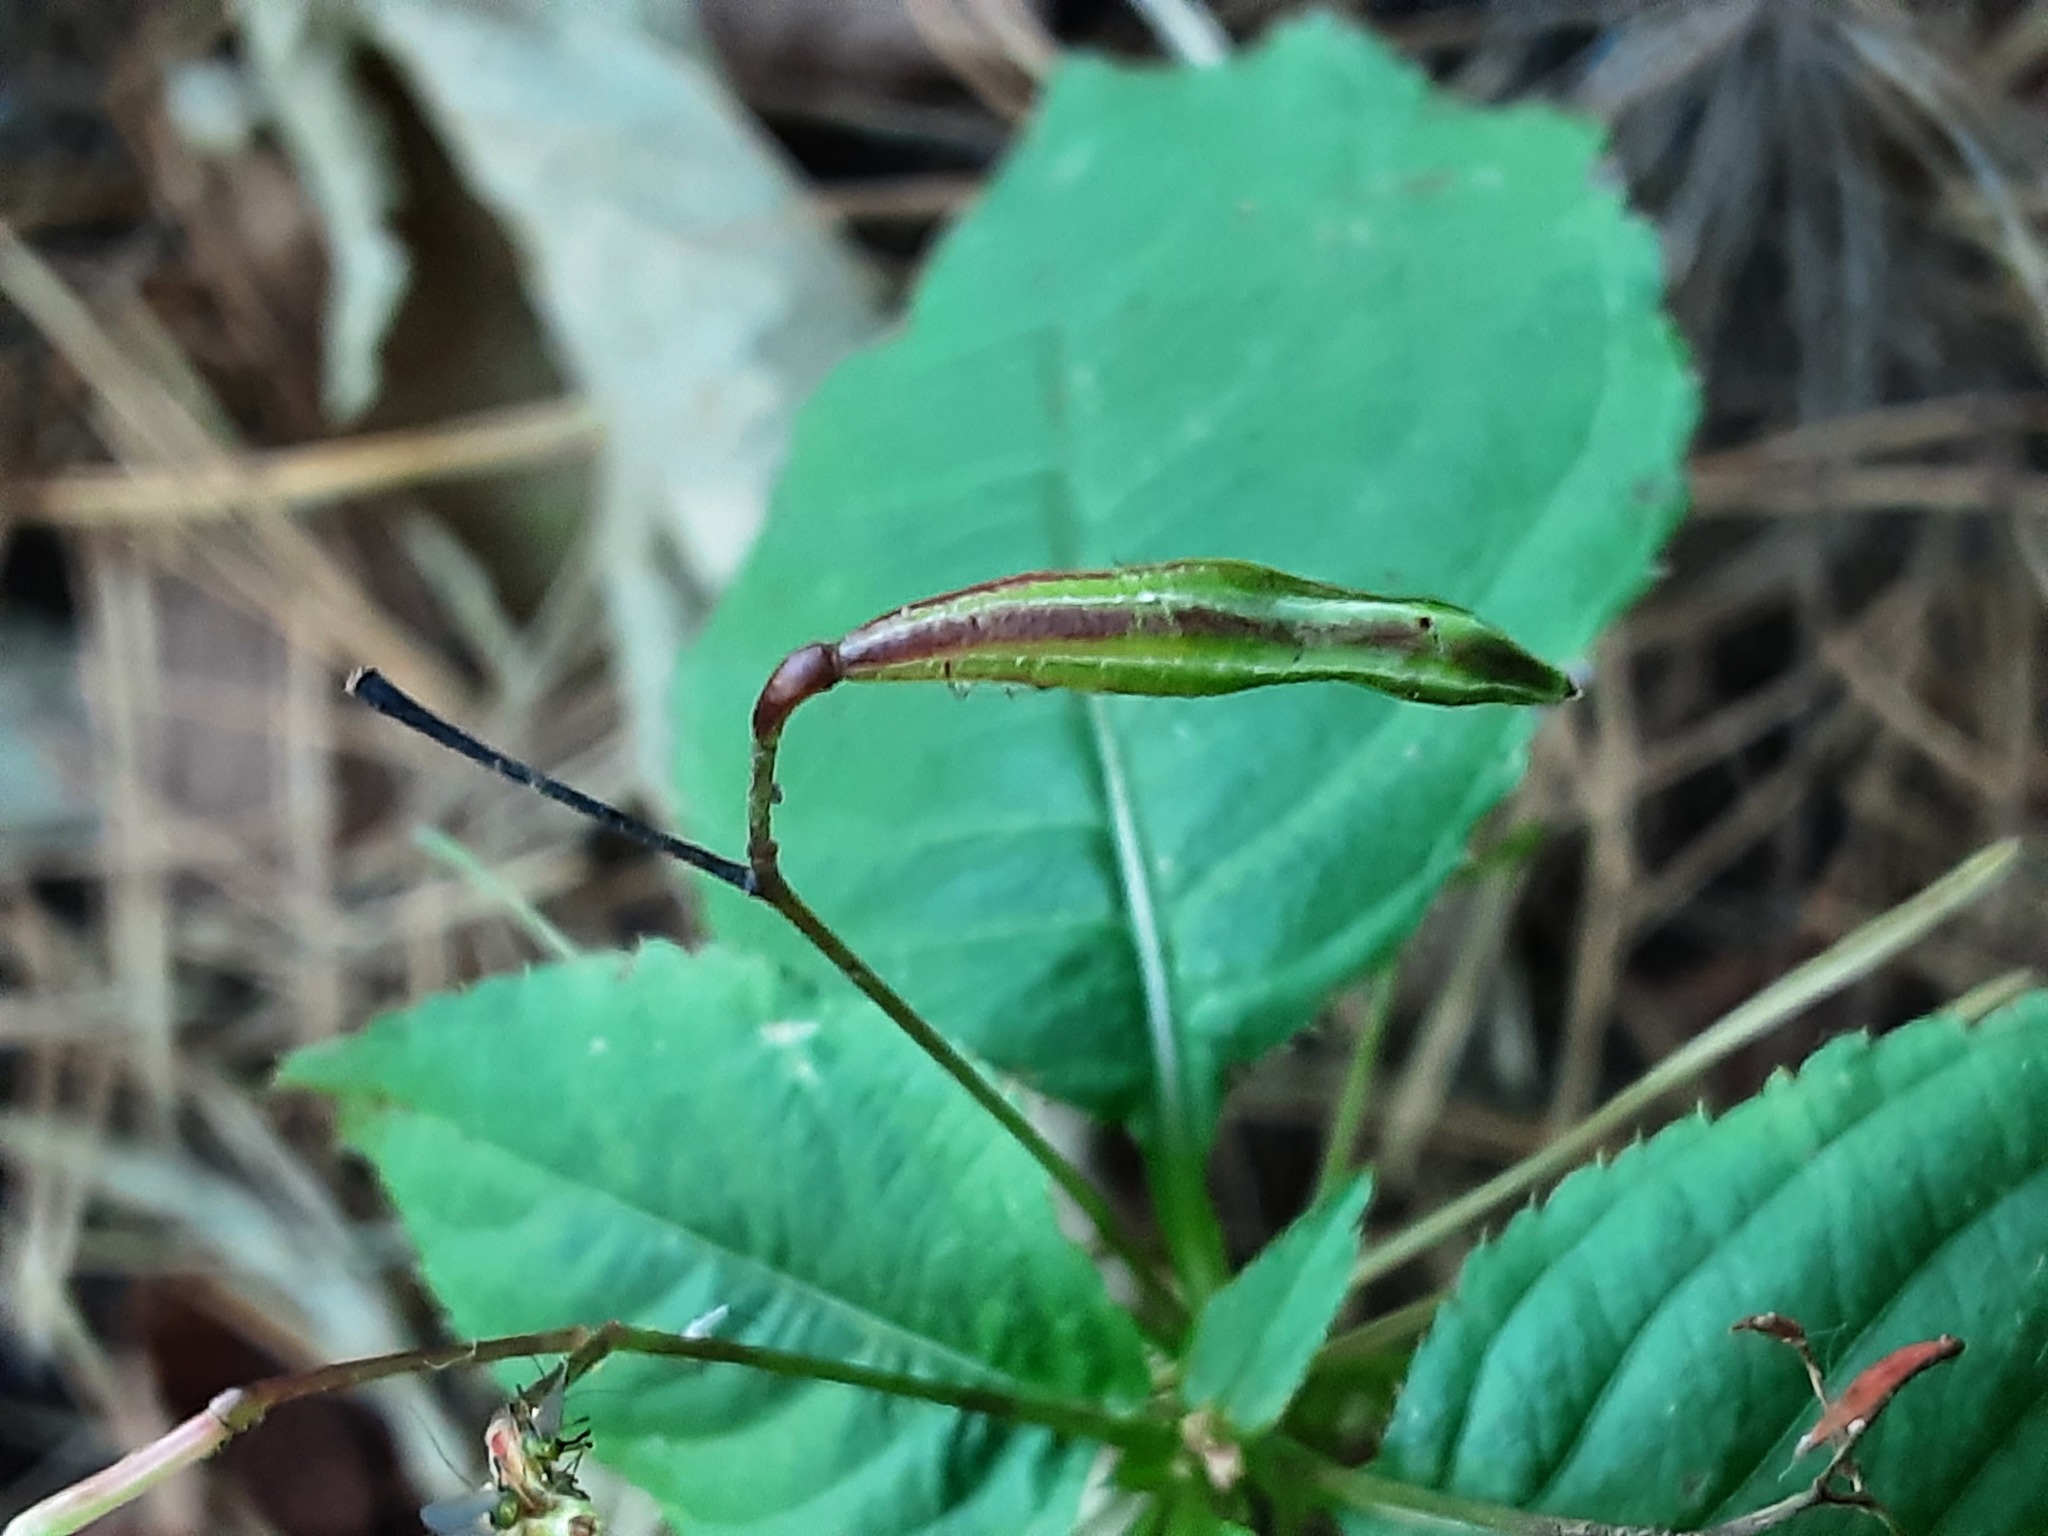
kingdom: Plantae
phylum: Tracheophyta
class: Magnoliopsida
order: Ericales
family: Balsaminaceae
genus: Impatiens
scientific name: Impatiens glandulifera
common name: Himalayan balsam
